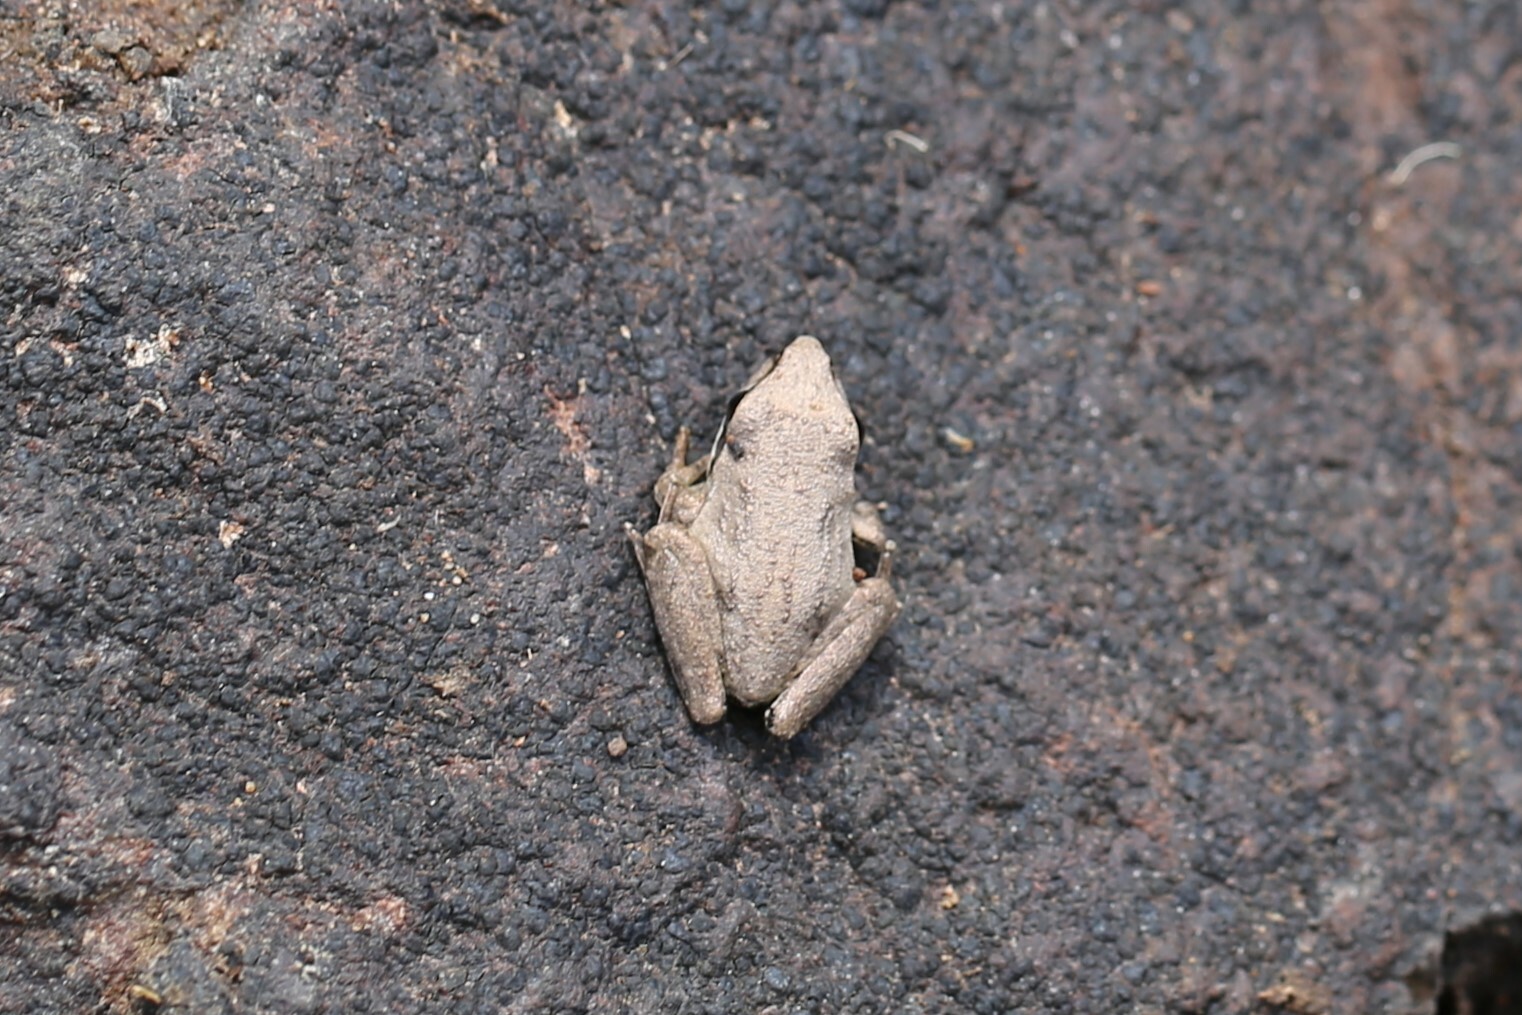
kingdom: Animalia
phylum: Chordata
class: Amphibia
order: Anura
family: Pelodryadidae
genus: Litoria
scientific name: Litoria latopalmata
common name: Broad-palmed rocket frog
